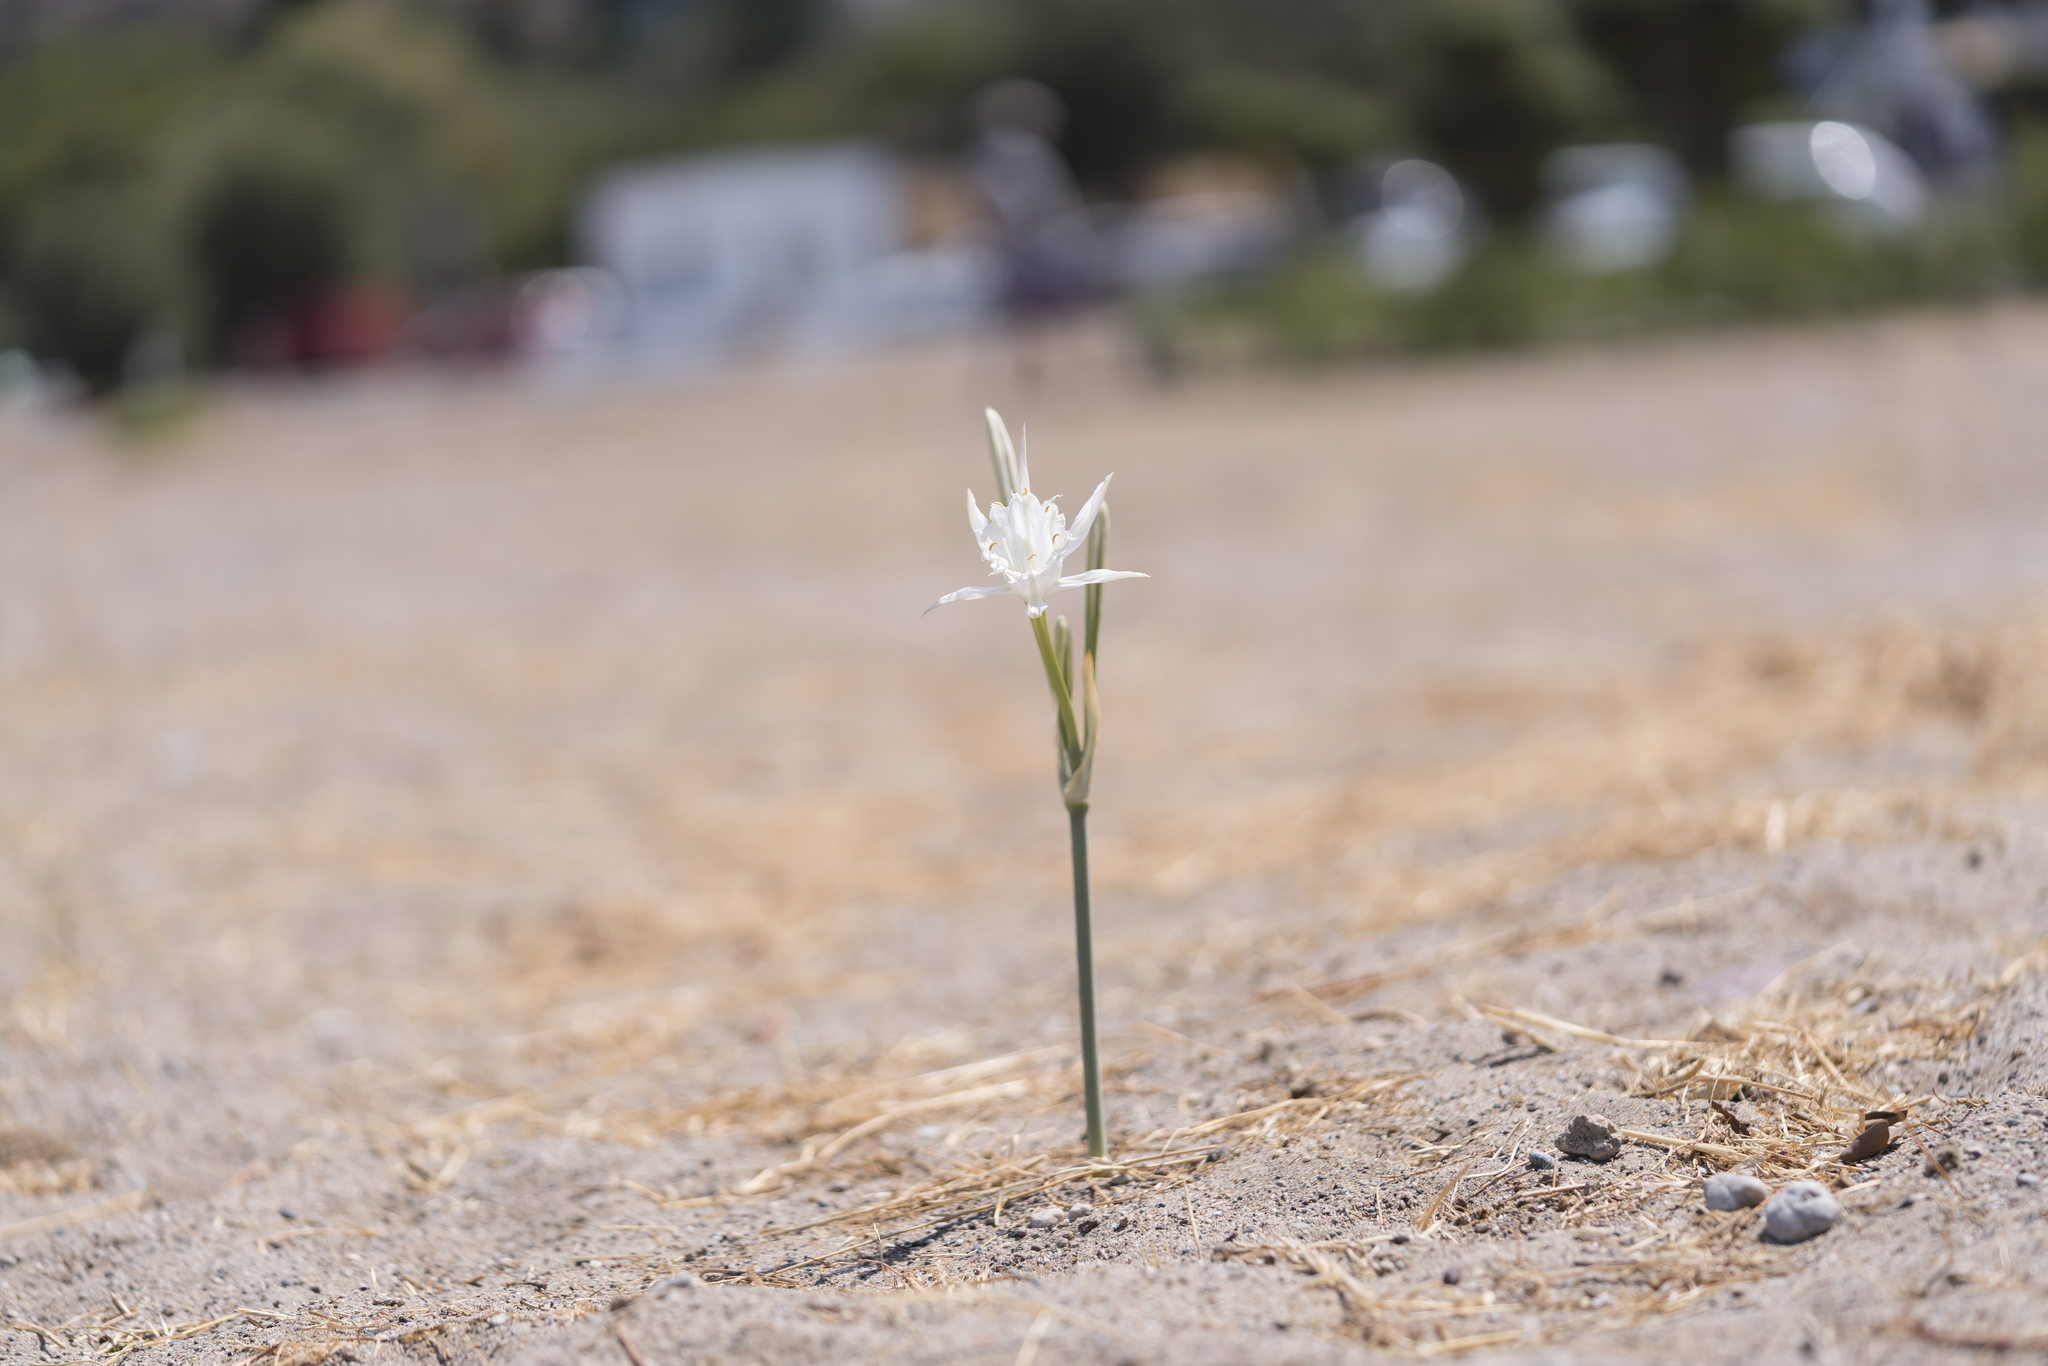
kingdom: Plantae
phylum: Tracheophyta
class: Liliopsida
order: Asparagales
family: Amaryllidaceae
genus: Pancratium
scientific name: Pancratium maritimum
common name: Sea-daffodil
